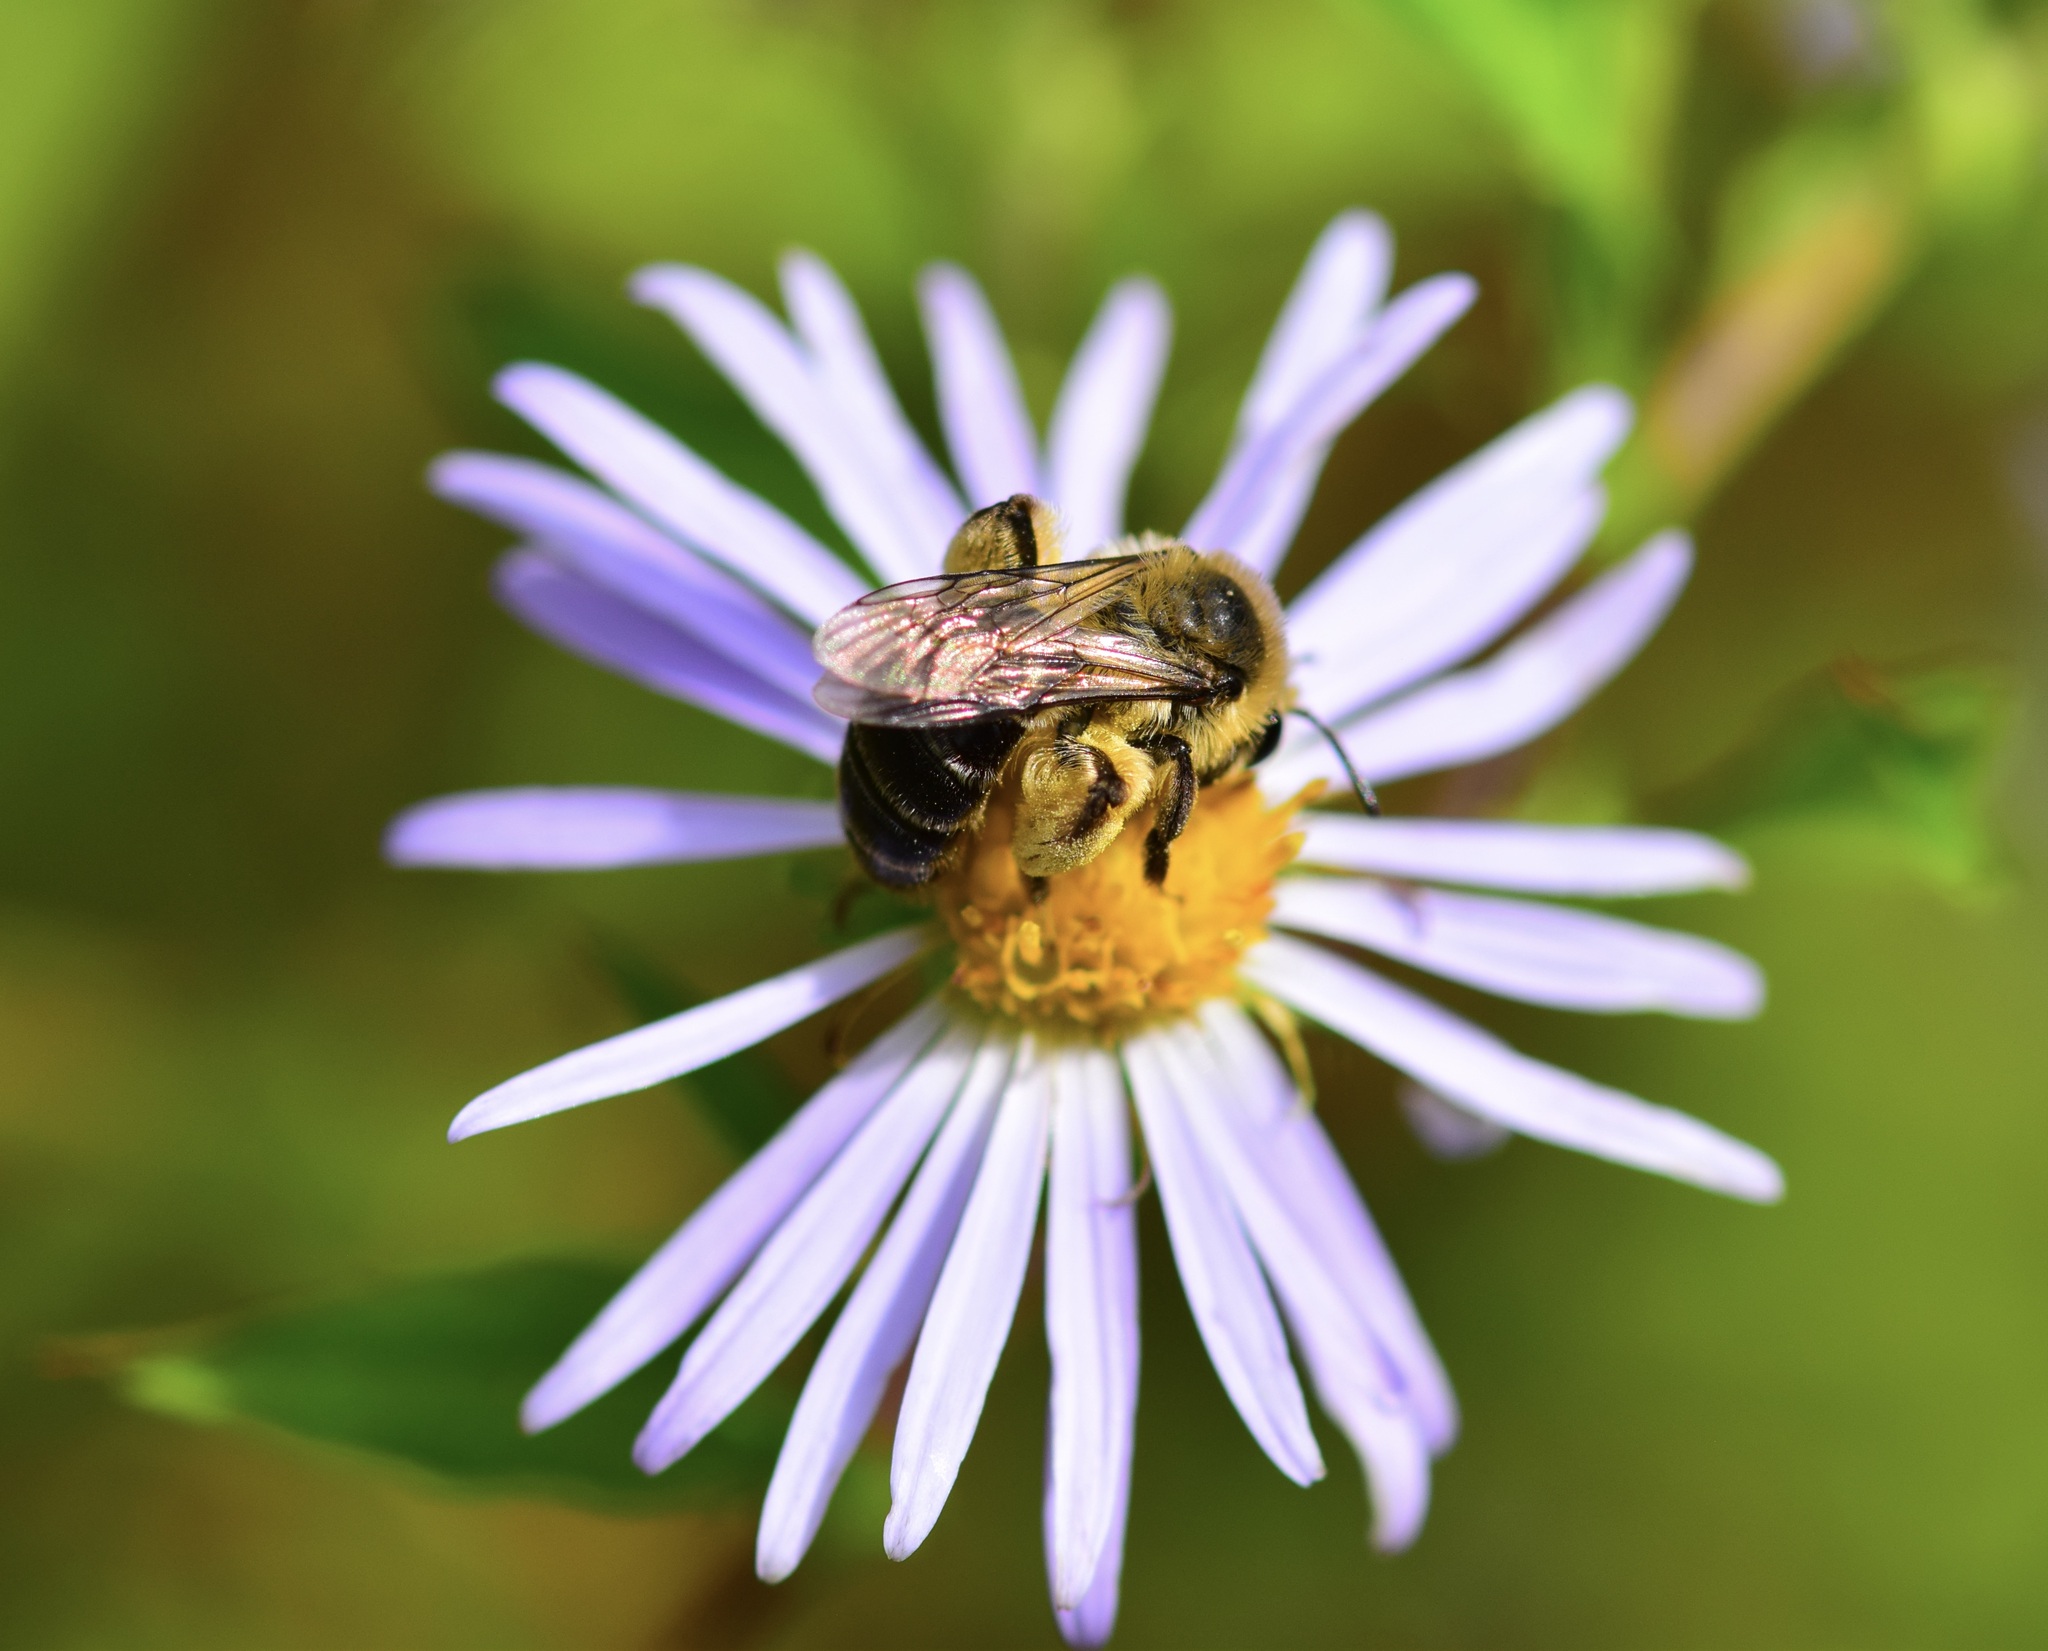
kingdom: Animalia
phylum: Arthropoda
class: Insecta
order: Hymenoptera
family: Andrenidae
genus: Andrena
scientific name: Andrena asteris
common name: Aster mining bee
